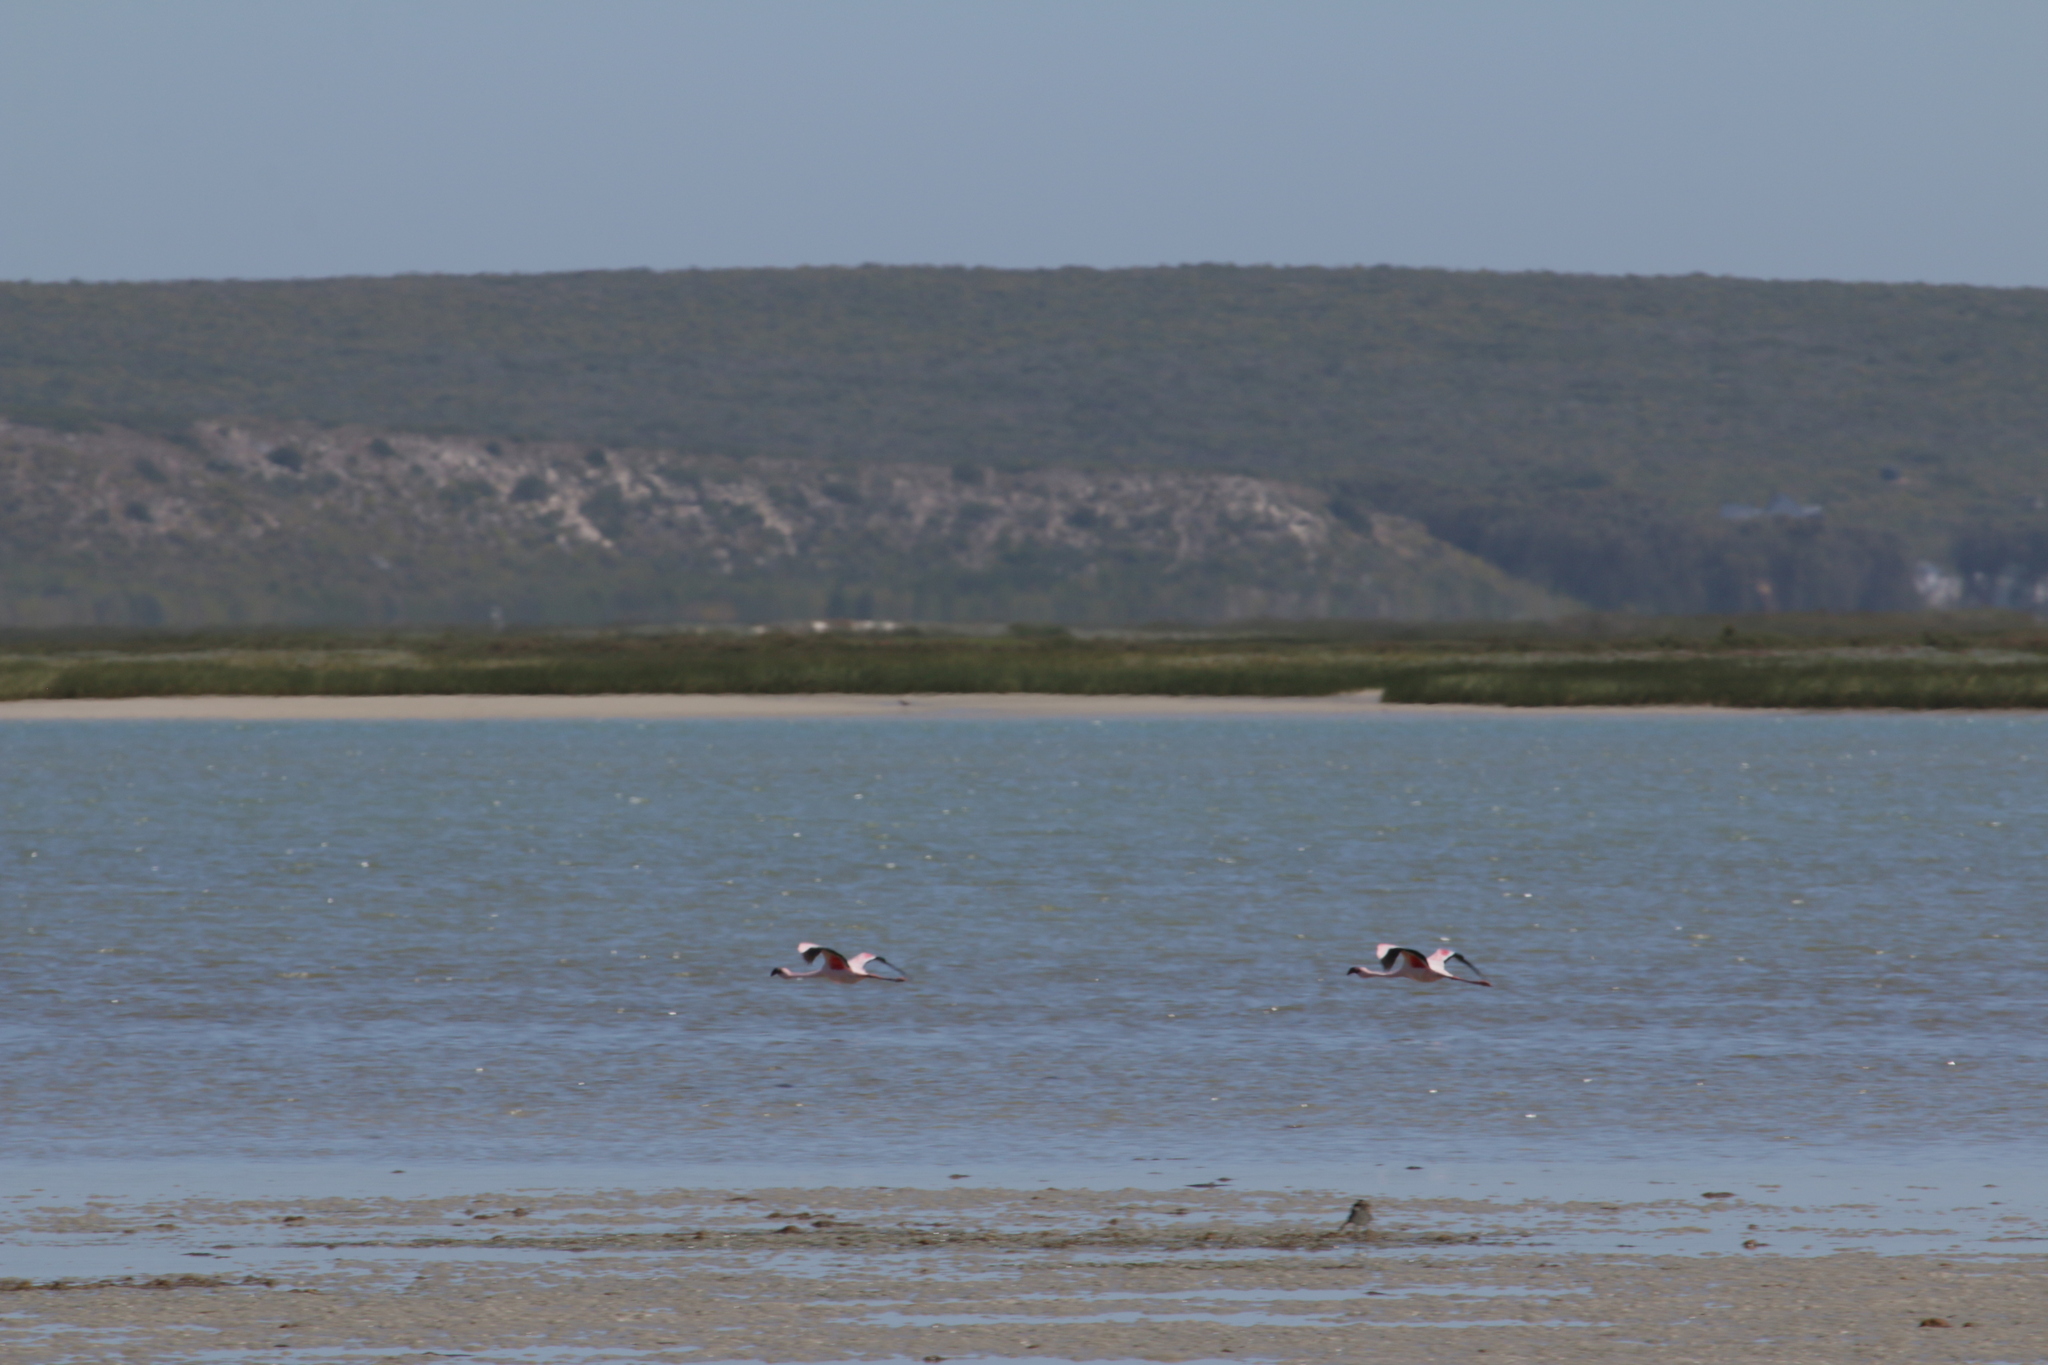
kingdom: Animalia
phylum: Chordata
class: Aves
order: Phoenicopteriformes
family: Phoenicopteridae
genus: Phoeniconaias
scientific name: Phoeniconaias minor
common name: Lesser flamingo
